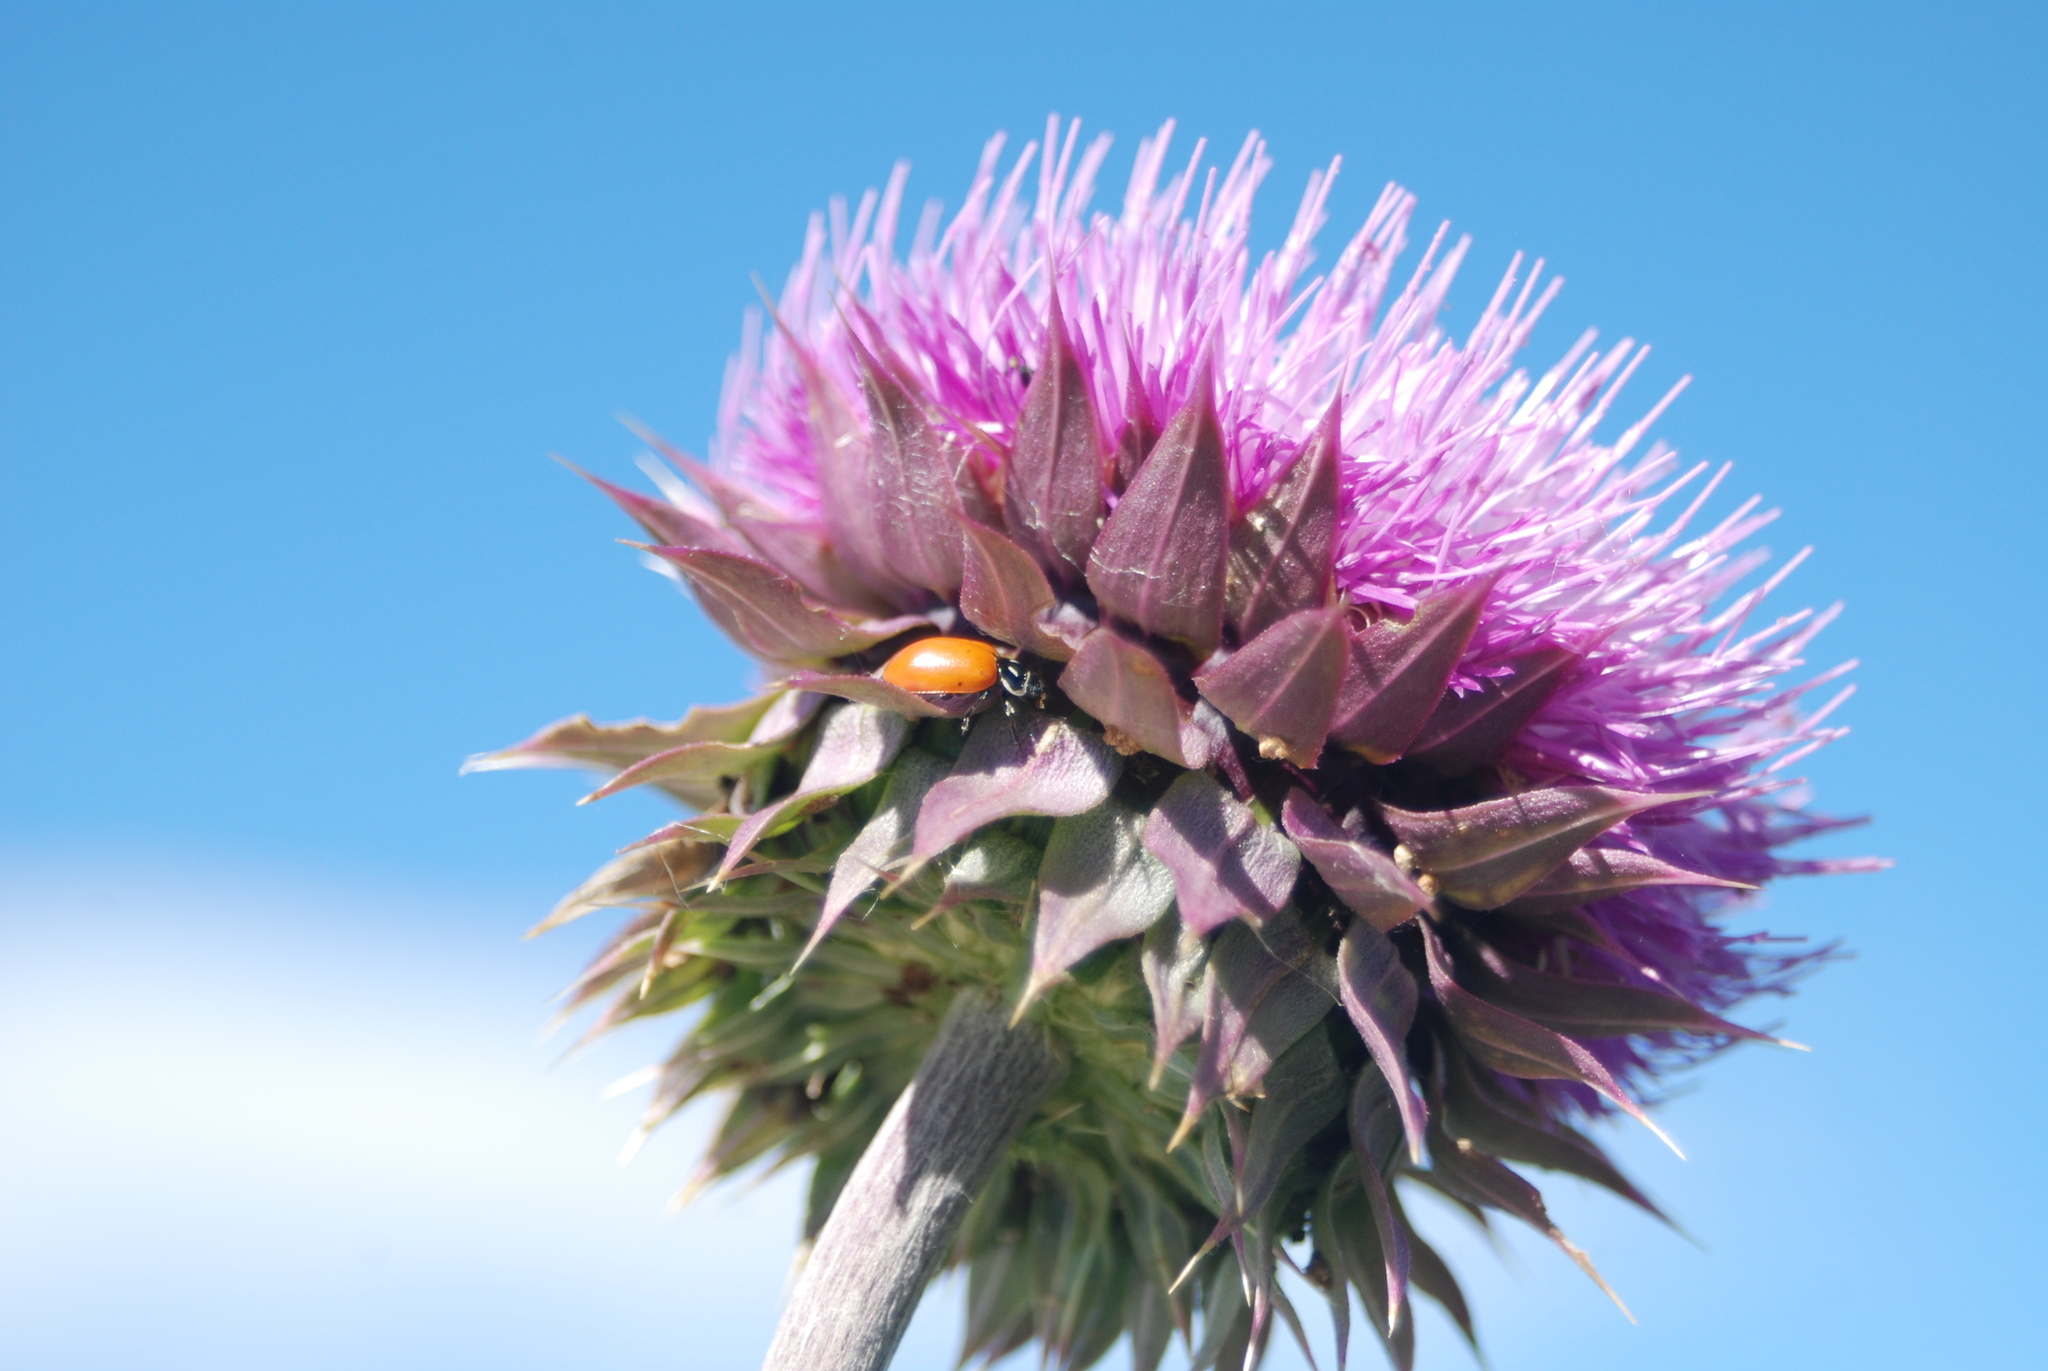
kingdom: Plantae
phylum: Tracheophyta
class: Magnoliopsida
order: Asterales
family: Asteraceae
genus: Carduus
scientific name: Carduus nutans
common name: Musk thistle
